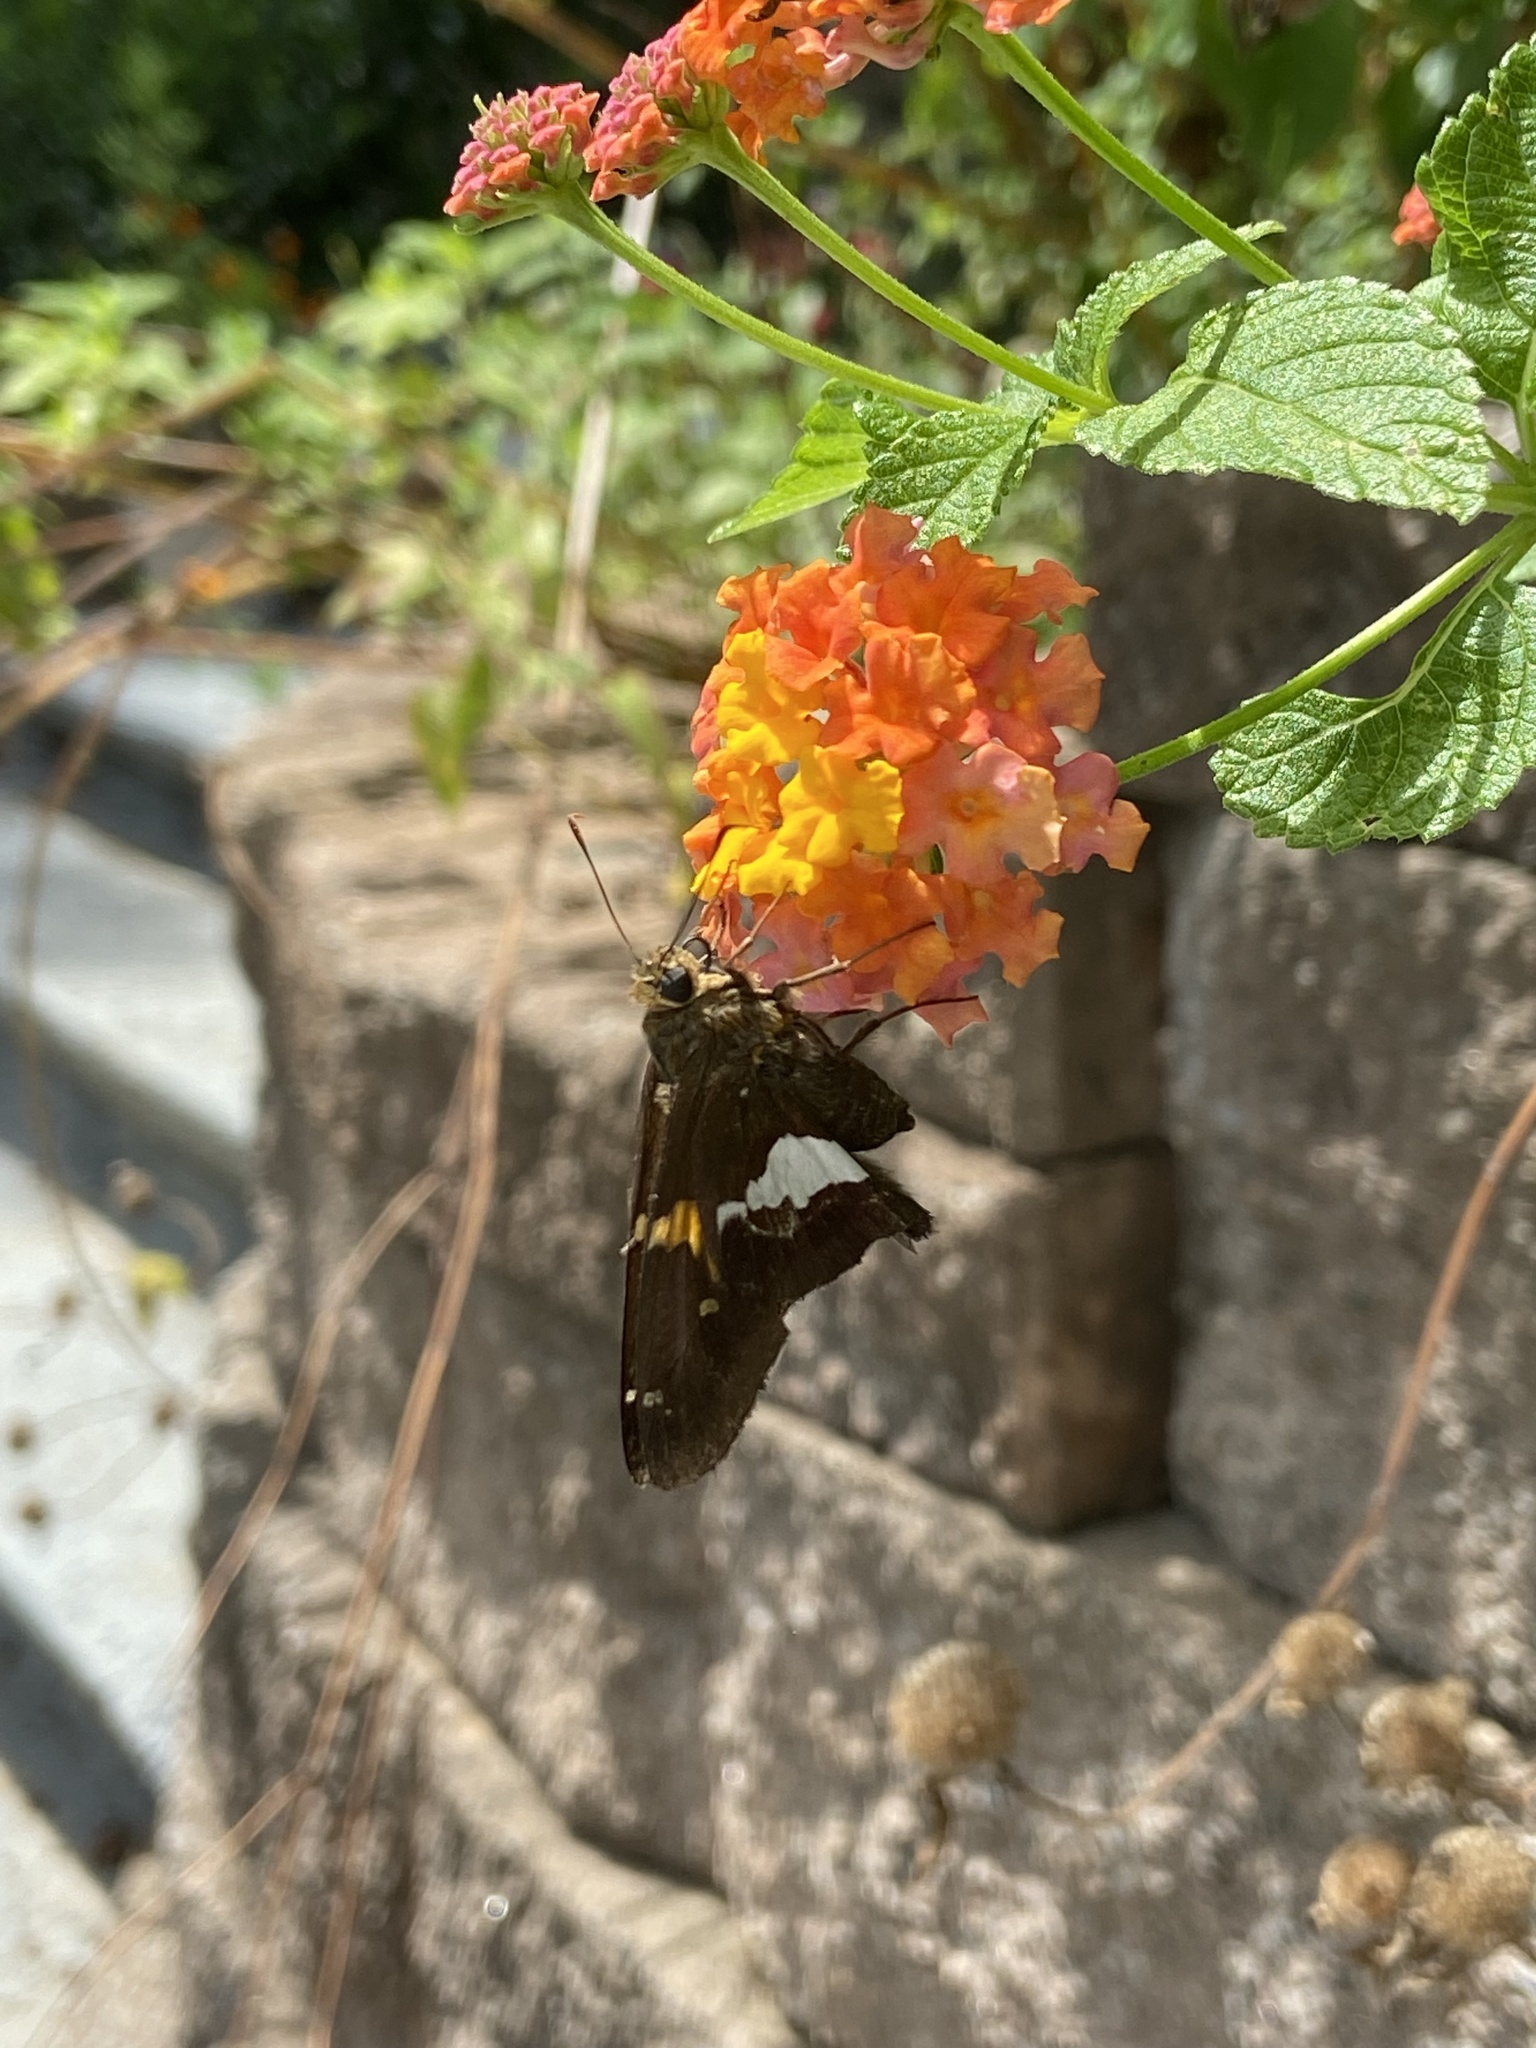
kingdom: Animalia
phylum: Arthropoda
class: Insecta
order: Lepidoptera
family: Hesperiidae
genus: Epargyreus
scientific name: Epargyreus clarus
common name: Silver-spotted skipper
